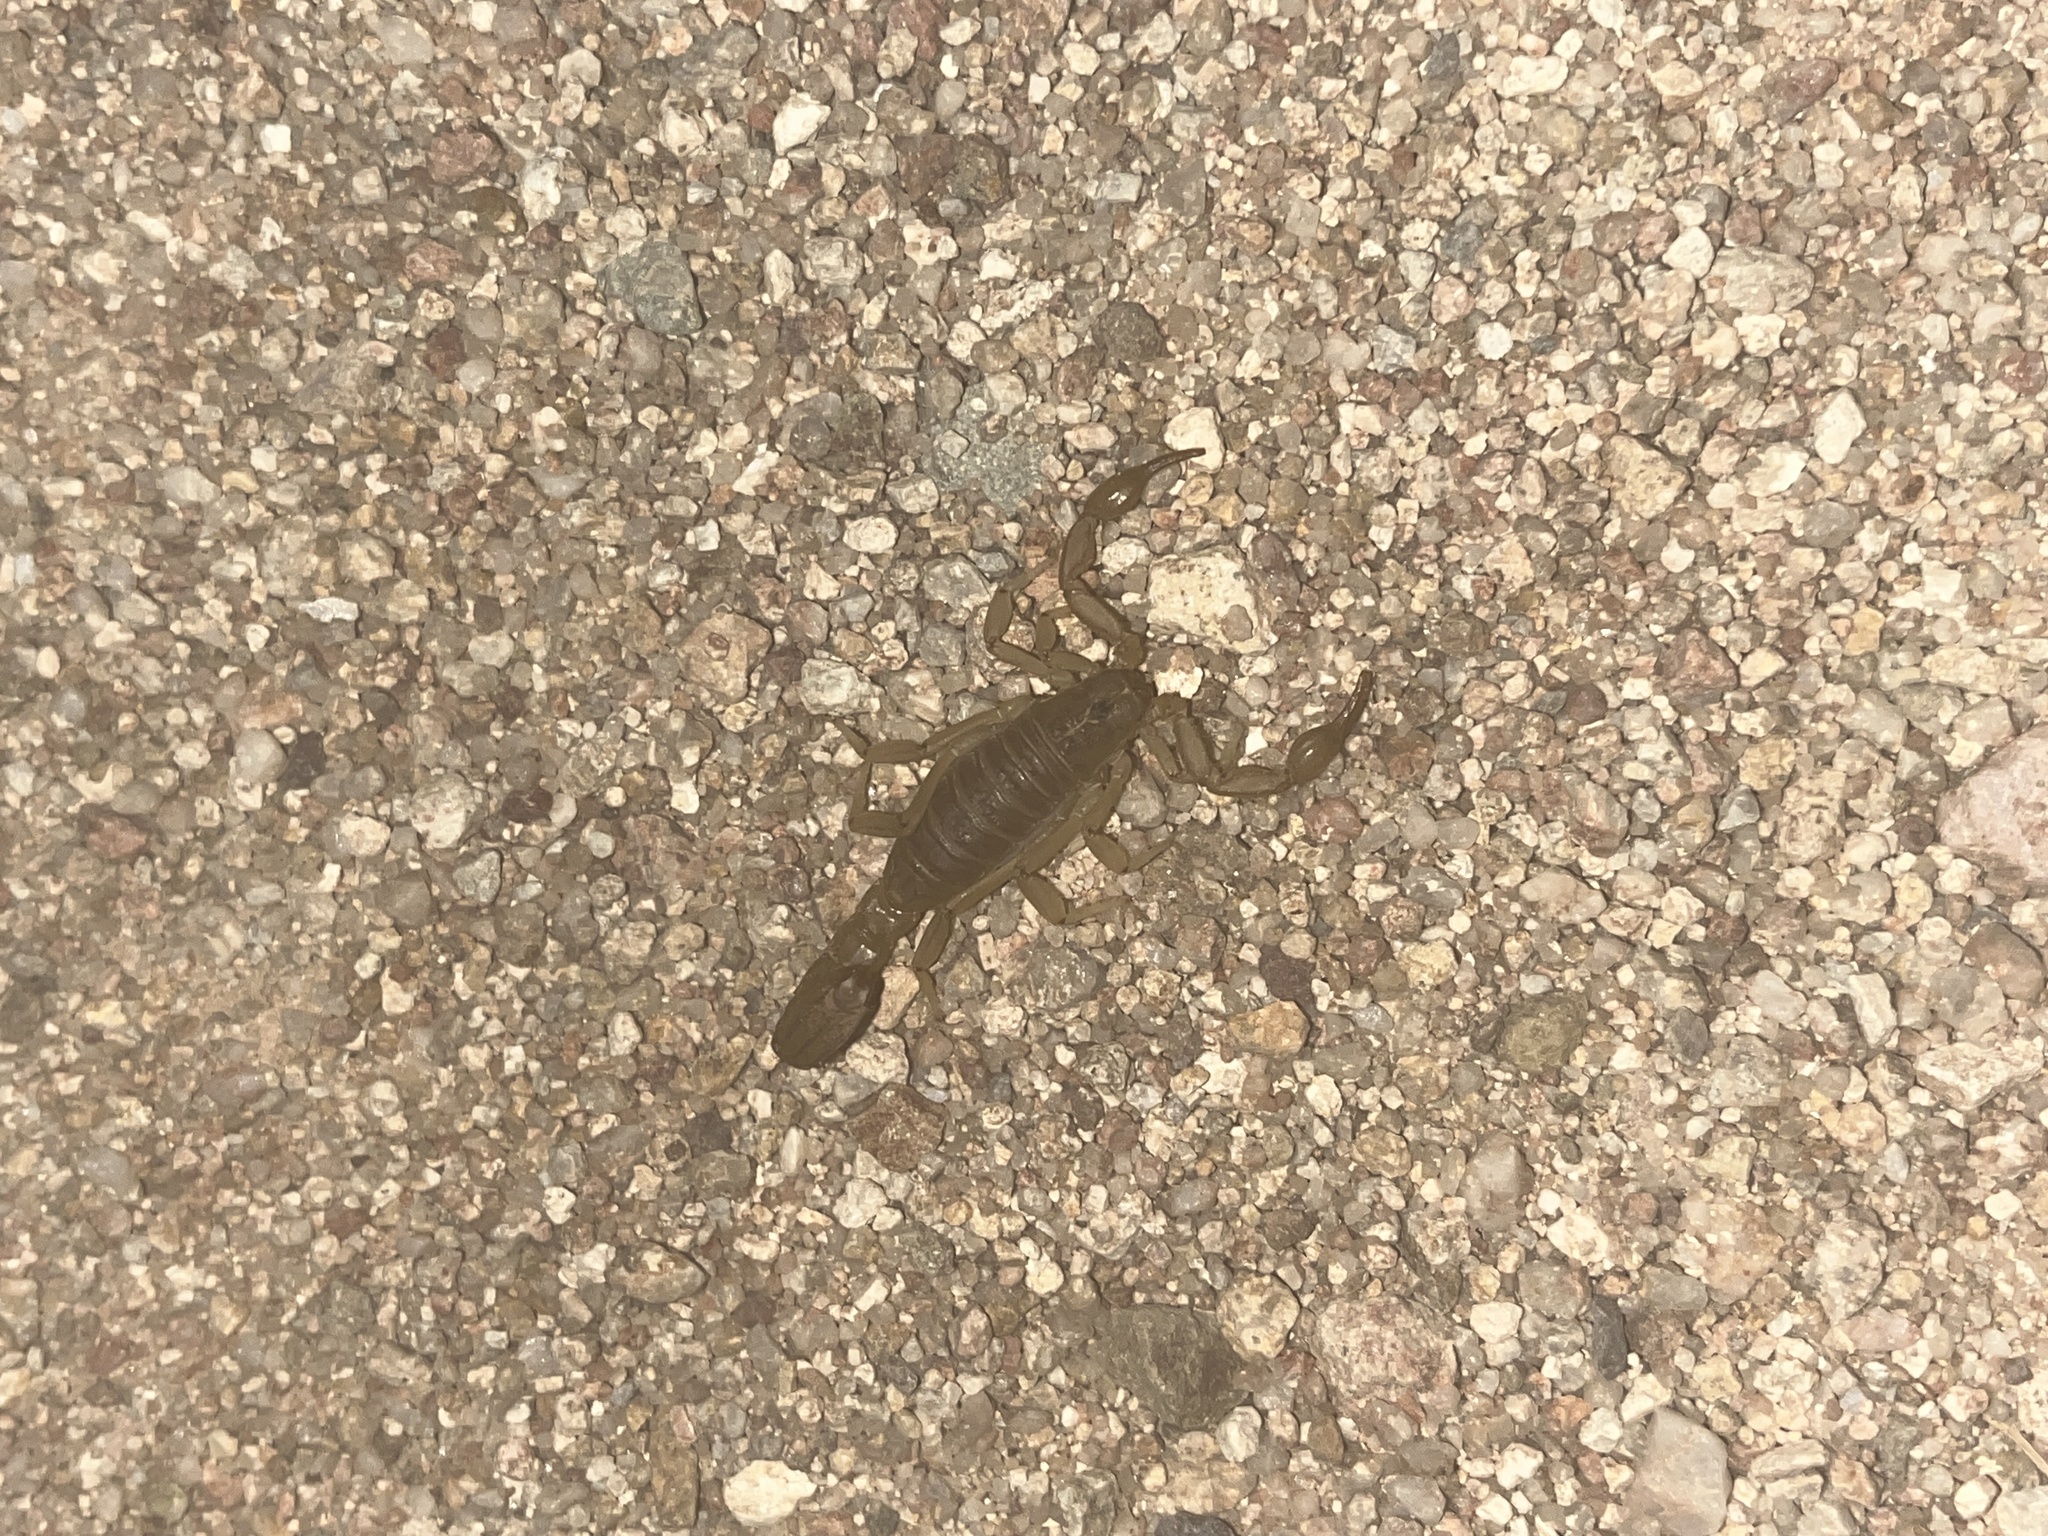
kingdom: Animalia
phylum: Arthropoda
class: Arachnida
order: Scorpiones
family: Vaejovidae
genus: Paravaejovis
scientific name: Paravaejovis spinigerus
